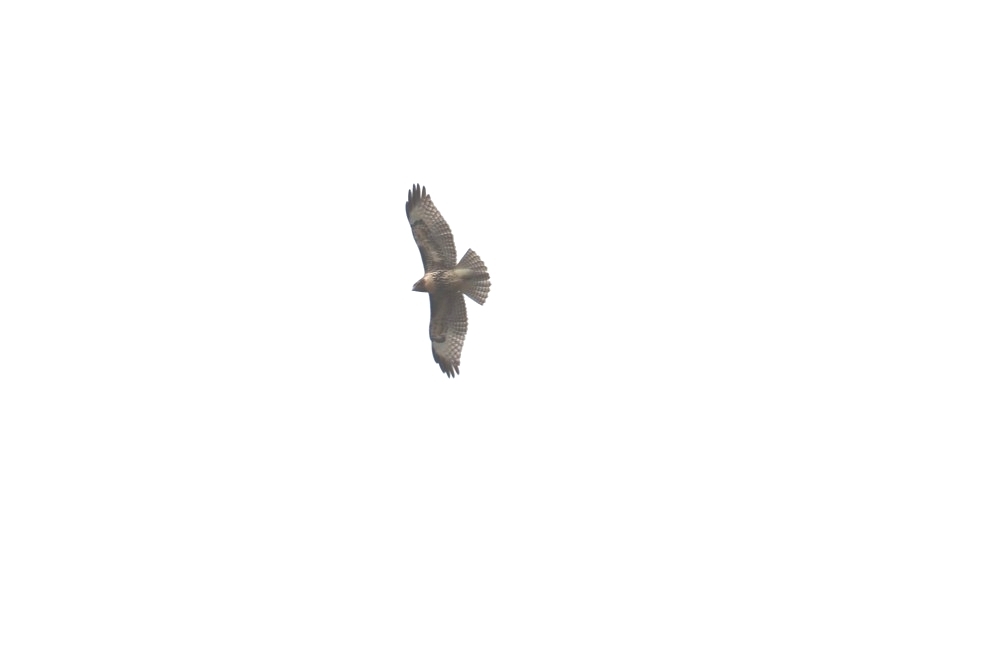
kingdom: Animalia
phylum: Chordata
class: Aves
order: Accipitriformes
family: Accipitridae
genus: Buteo
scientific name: Buteo jamaicensis
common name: Red-tailed hawk
